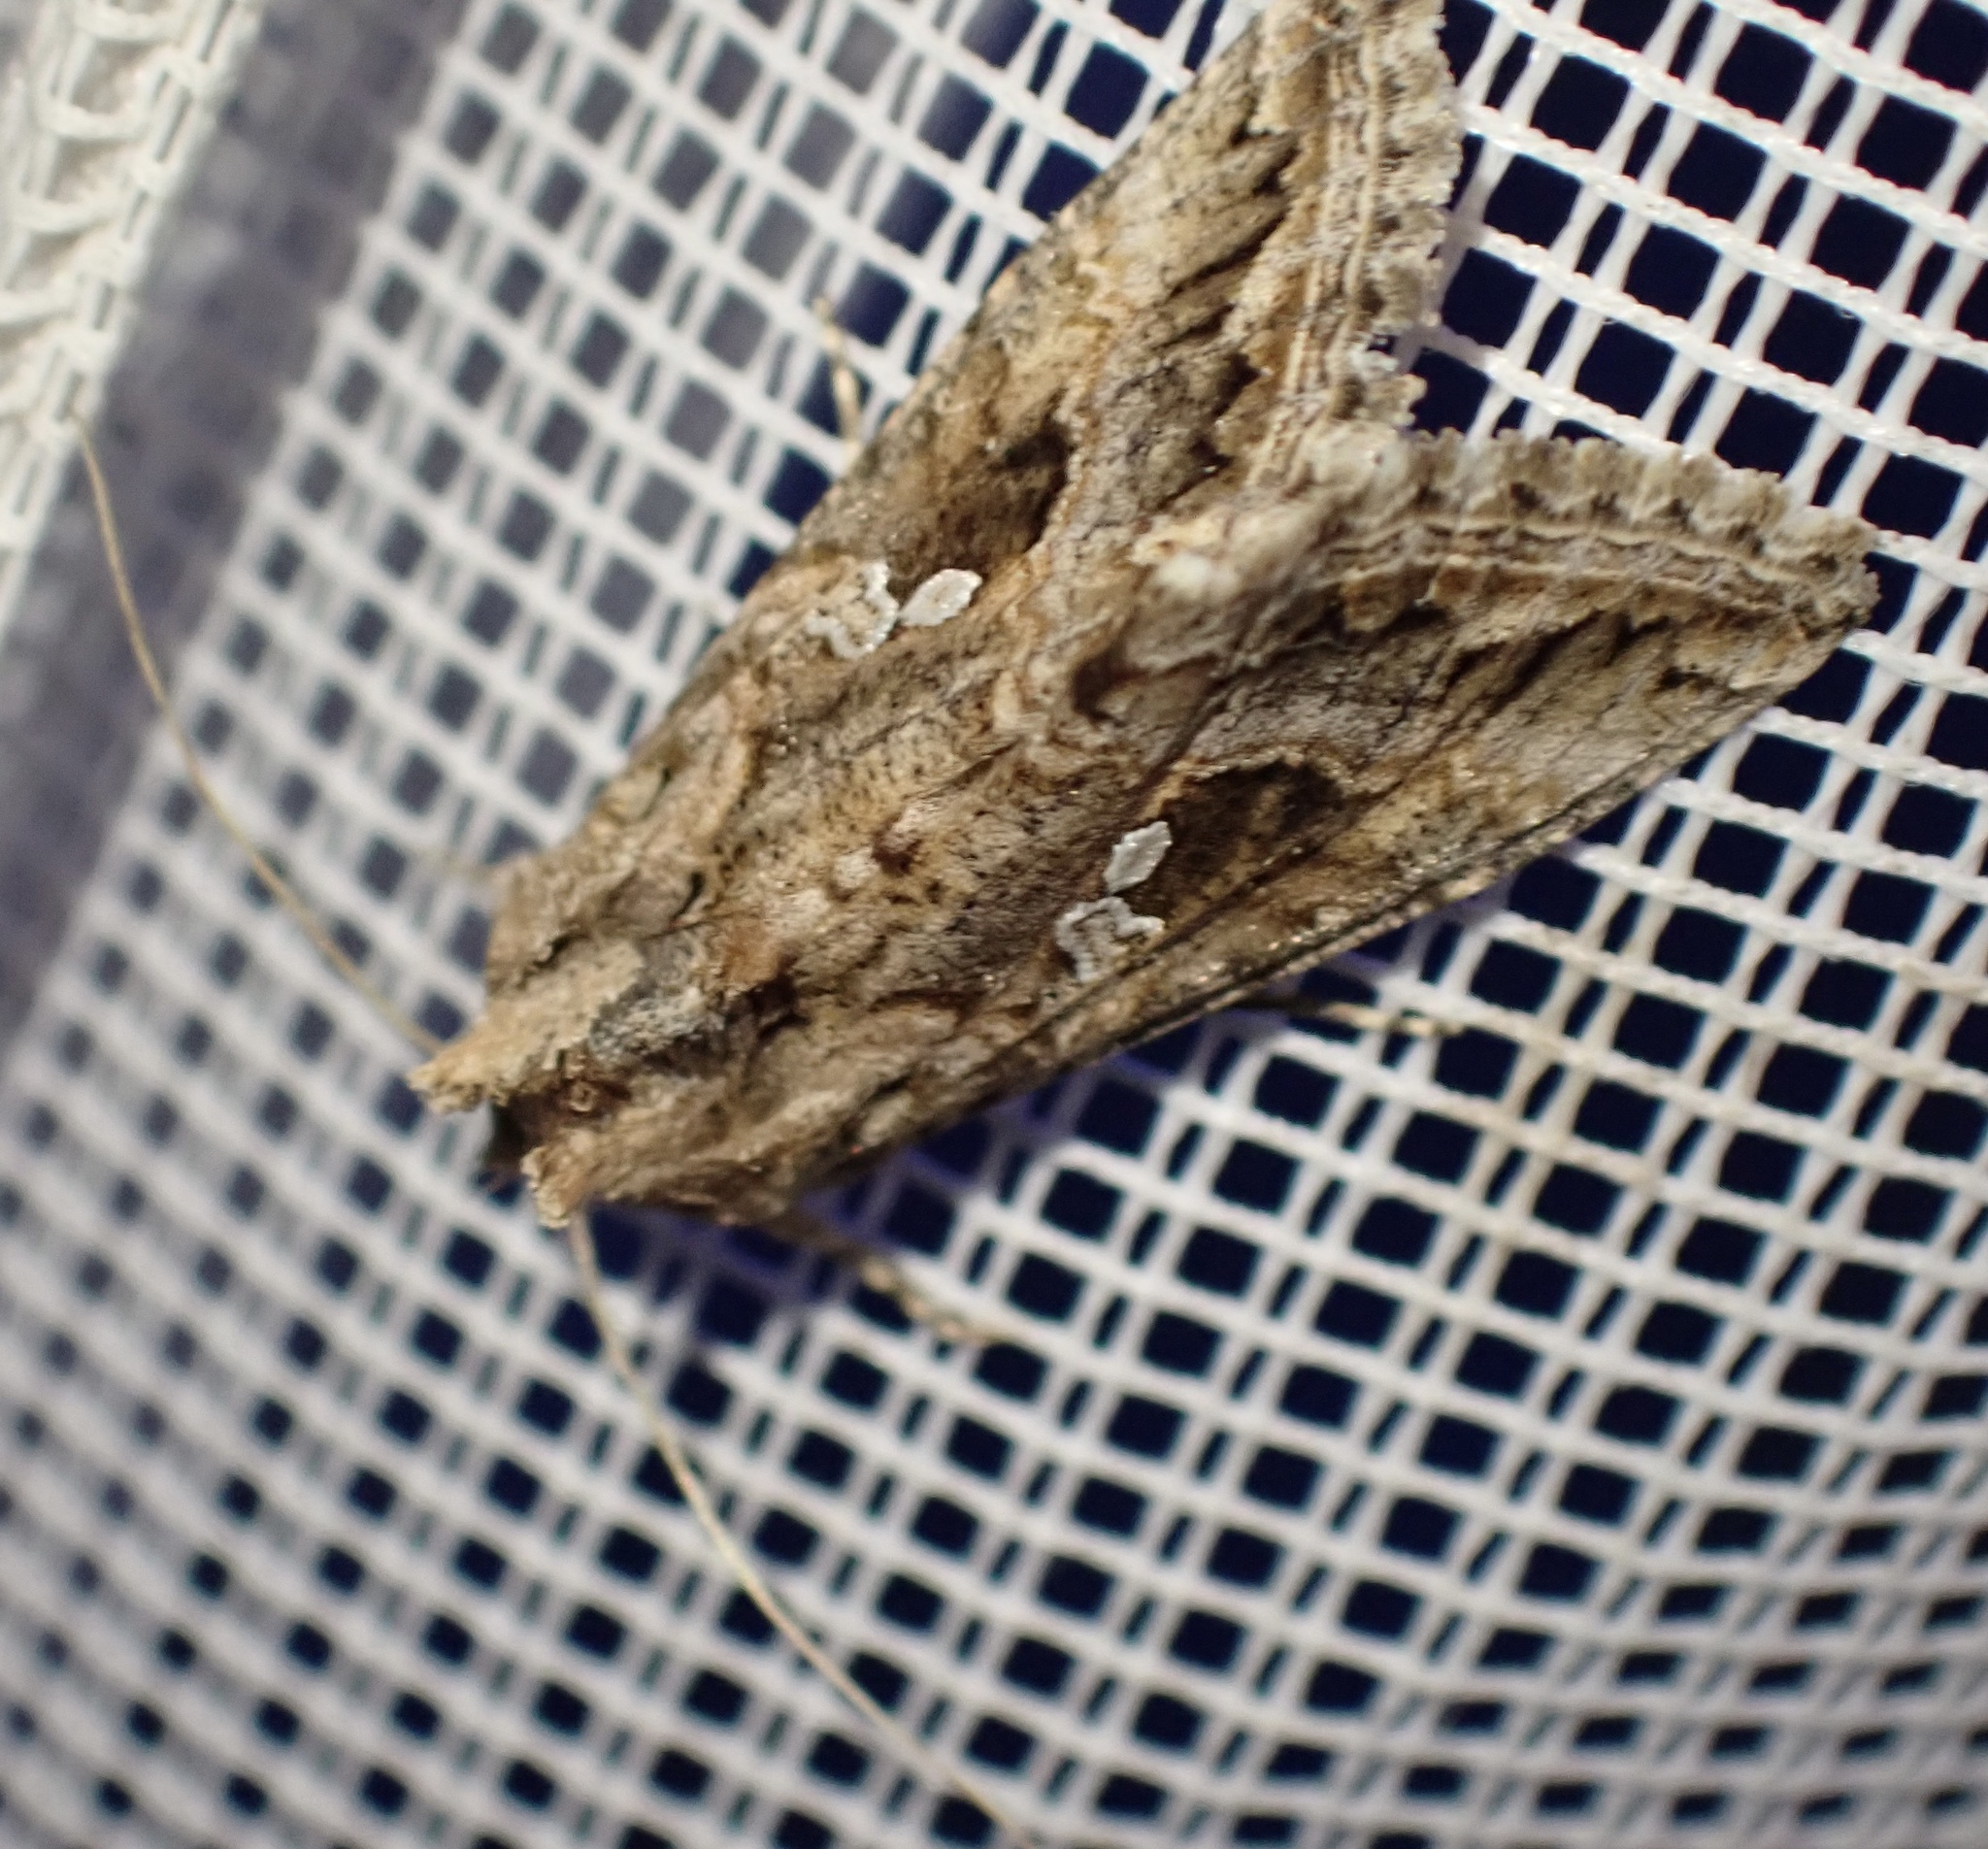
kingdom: Animalia
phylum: Arthropoda
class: Insecta
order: Lepidoptera
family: Noctuidae
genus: Trichoplusia
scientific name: Trichoplusia ni
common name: Ni moth
